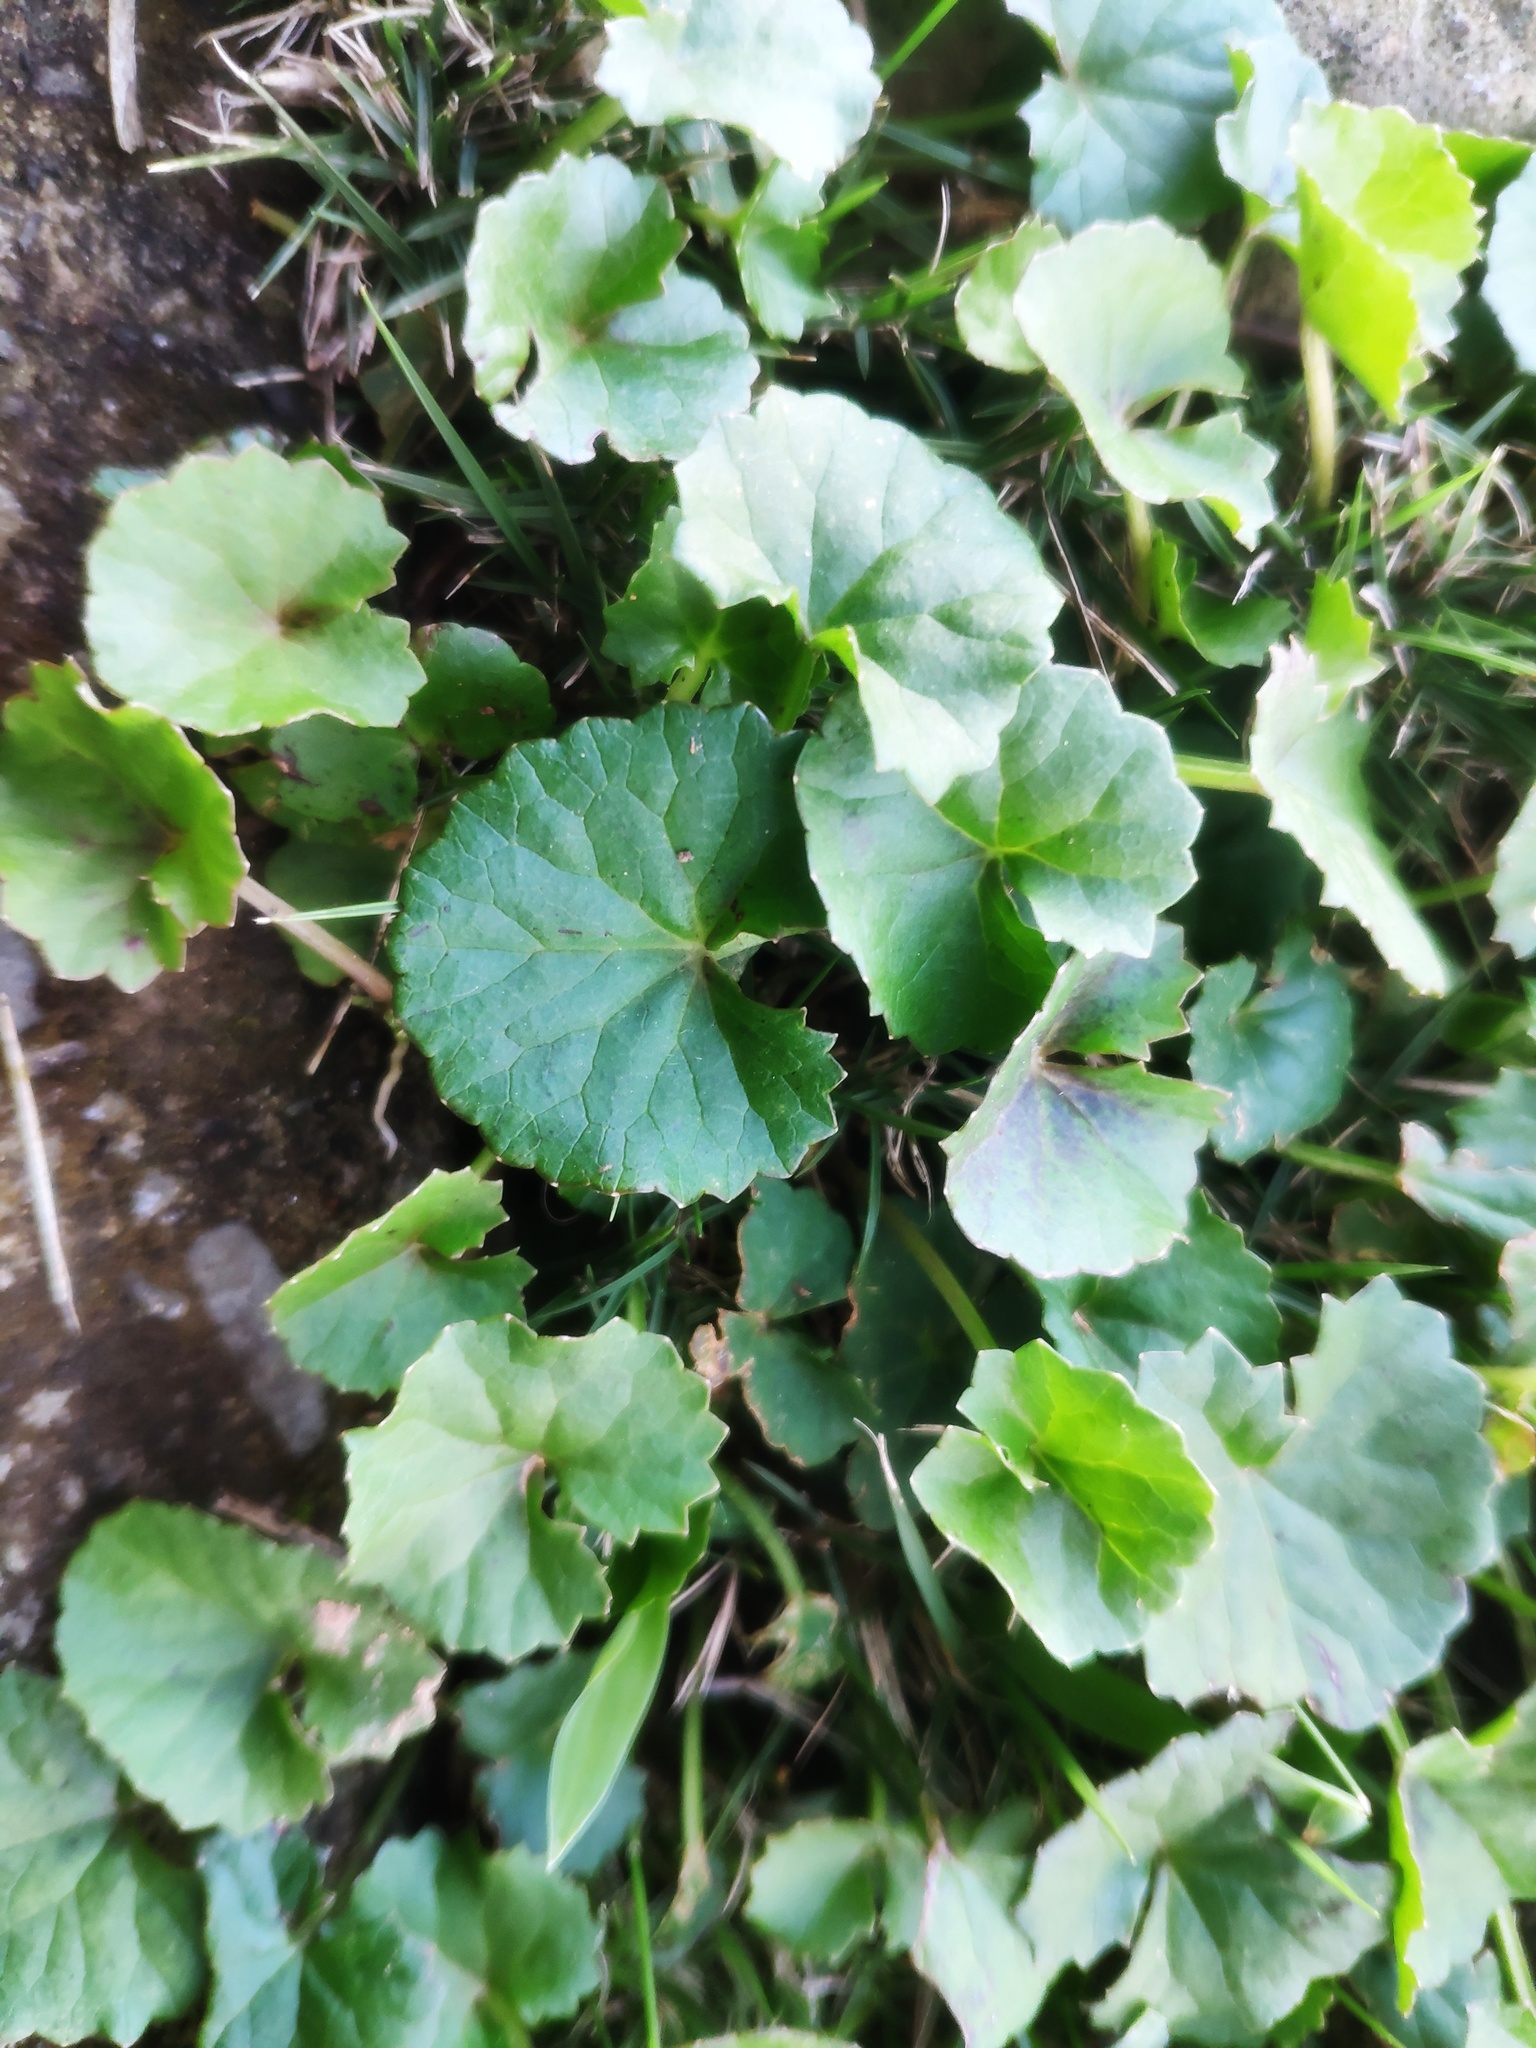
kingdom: Plantae
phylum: Tracheophyta
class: Magnoliopsida
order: Apiales
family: Apiaceae
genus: Centella
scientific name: Centella asiatica
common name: Spadeleaf
